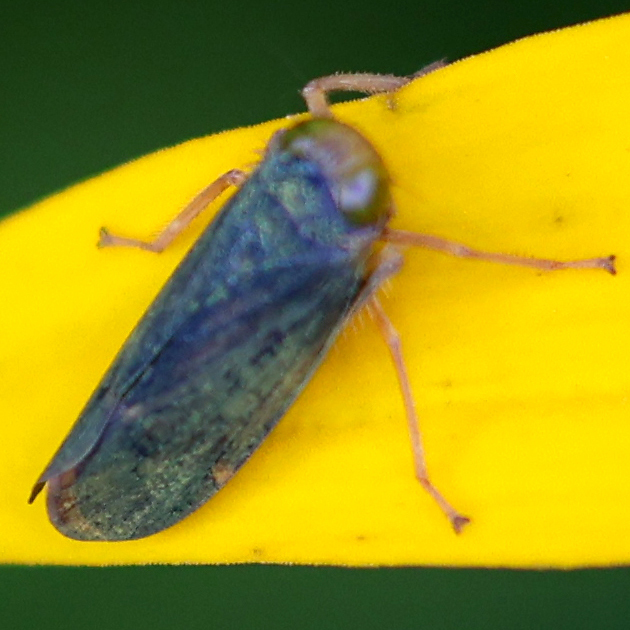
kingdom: Animalia
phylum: Arthropoda
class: Insecta
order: Hemiptera
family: Cicadellidae
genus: Jikradia
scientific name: Jikradia olitoria
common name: Coppery leafhopper
